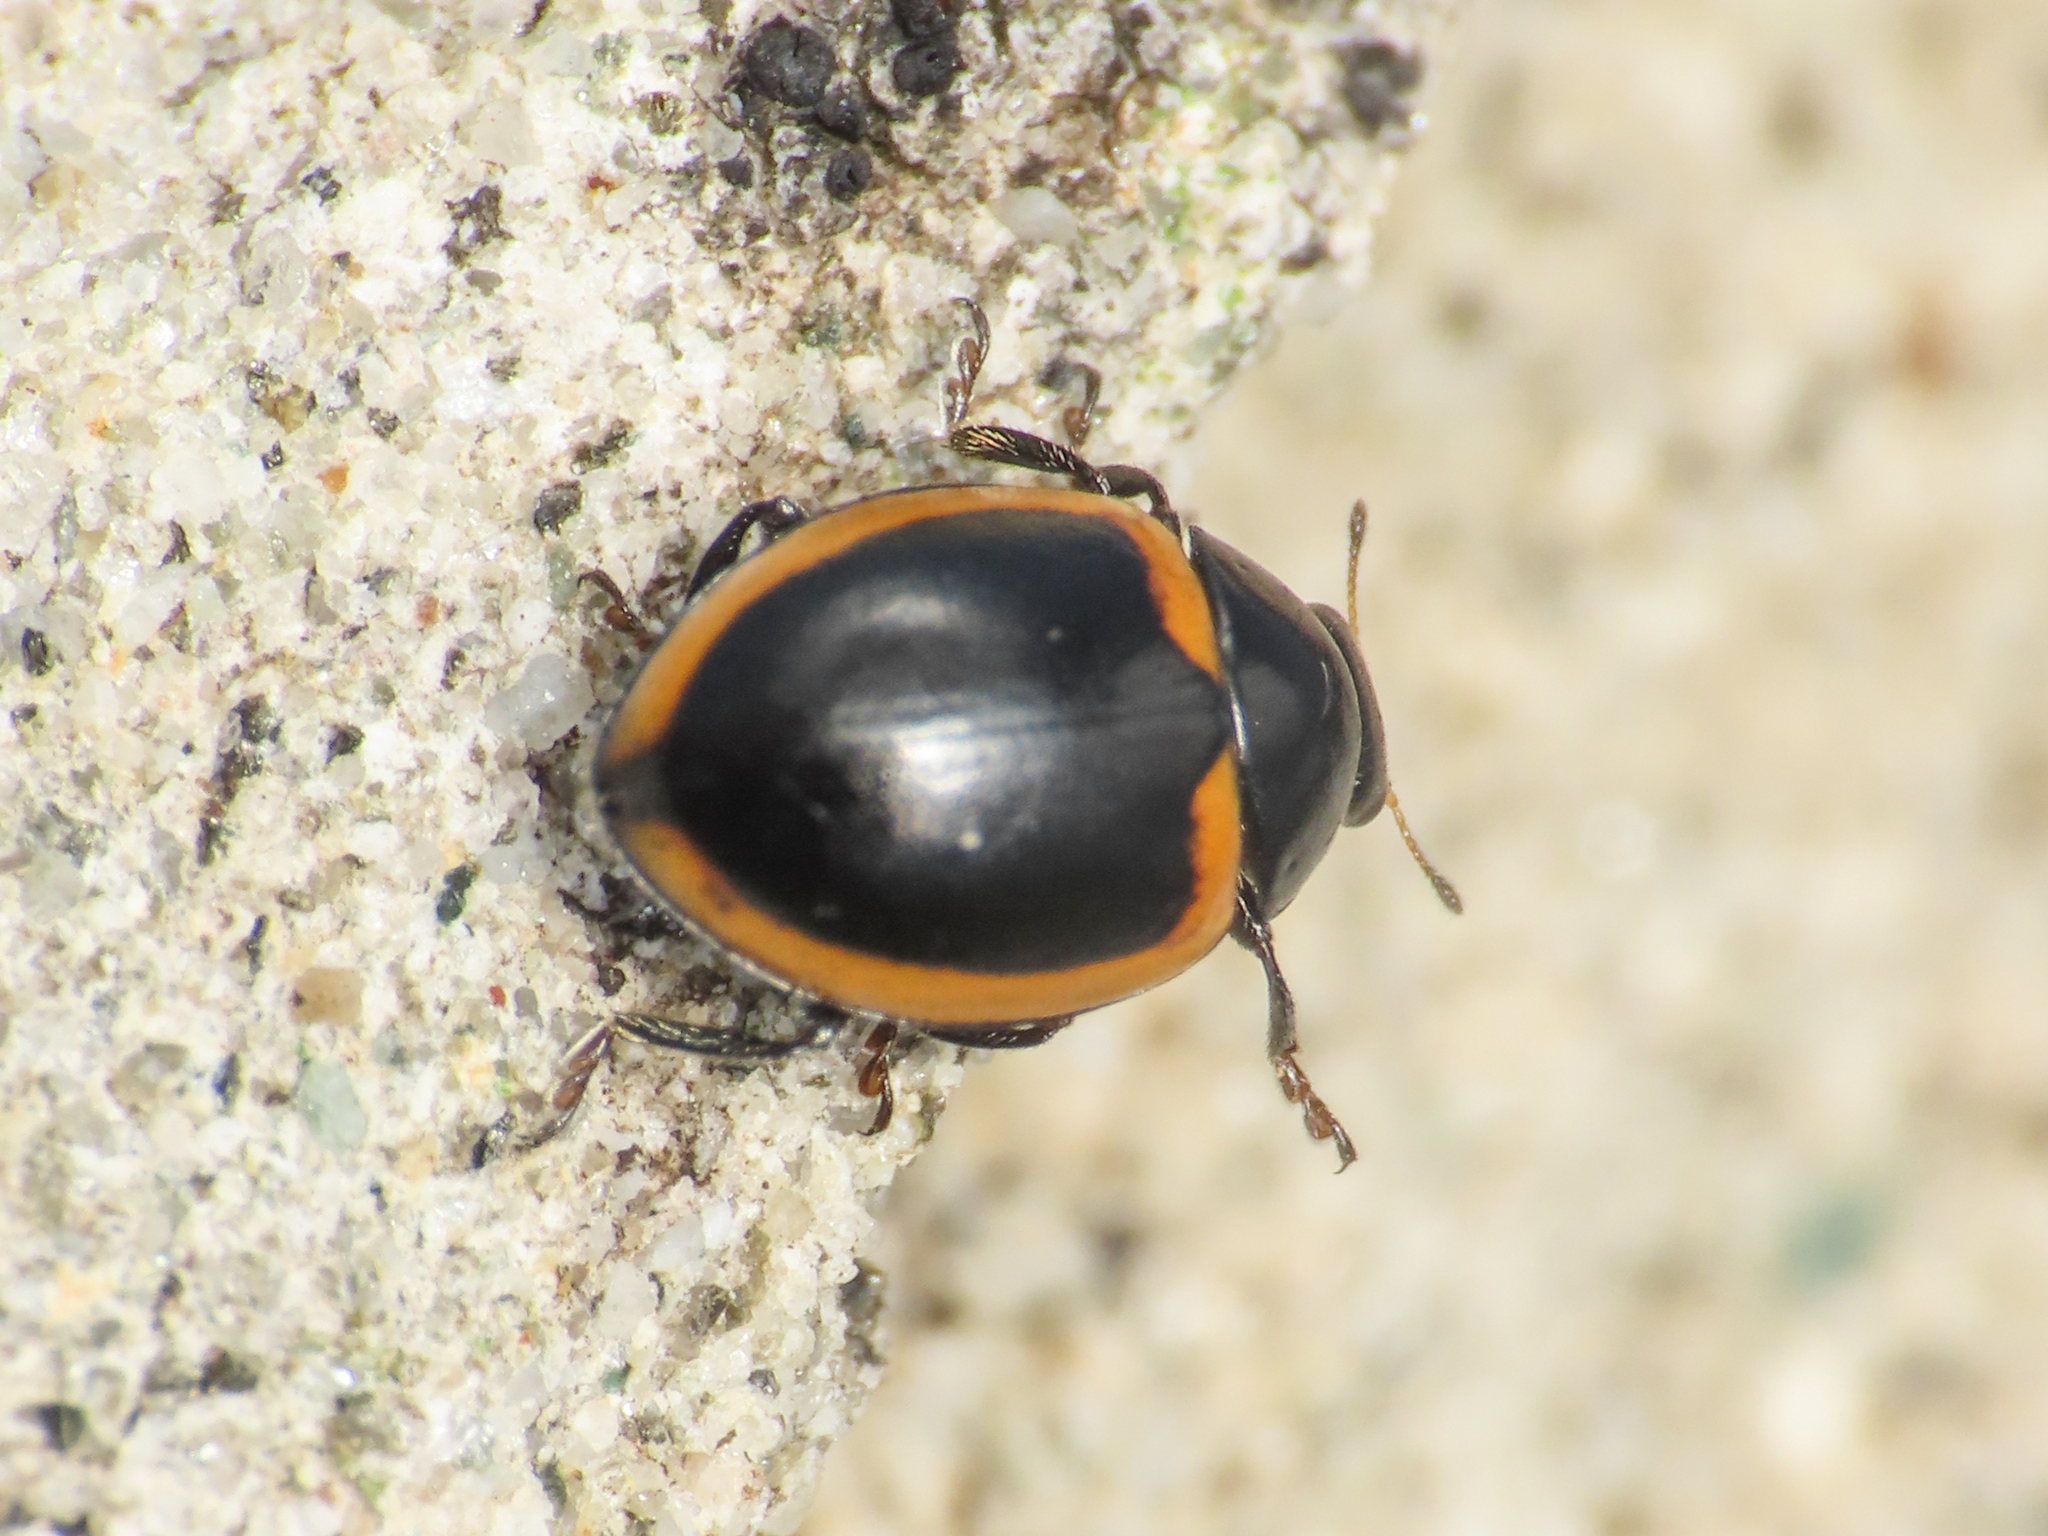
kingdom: Animalia
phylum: Arthropoda
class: Insecta
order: Coleoptera
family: Coccinellidae
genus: Coccinella
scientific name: Coccinella venusta
